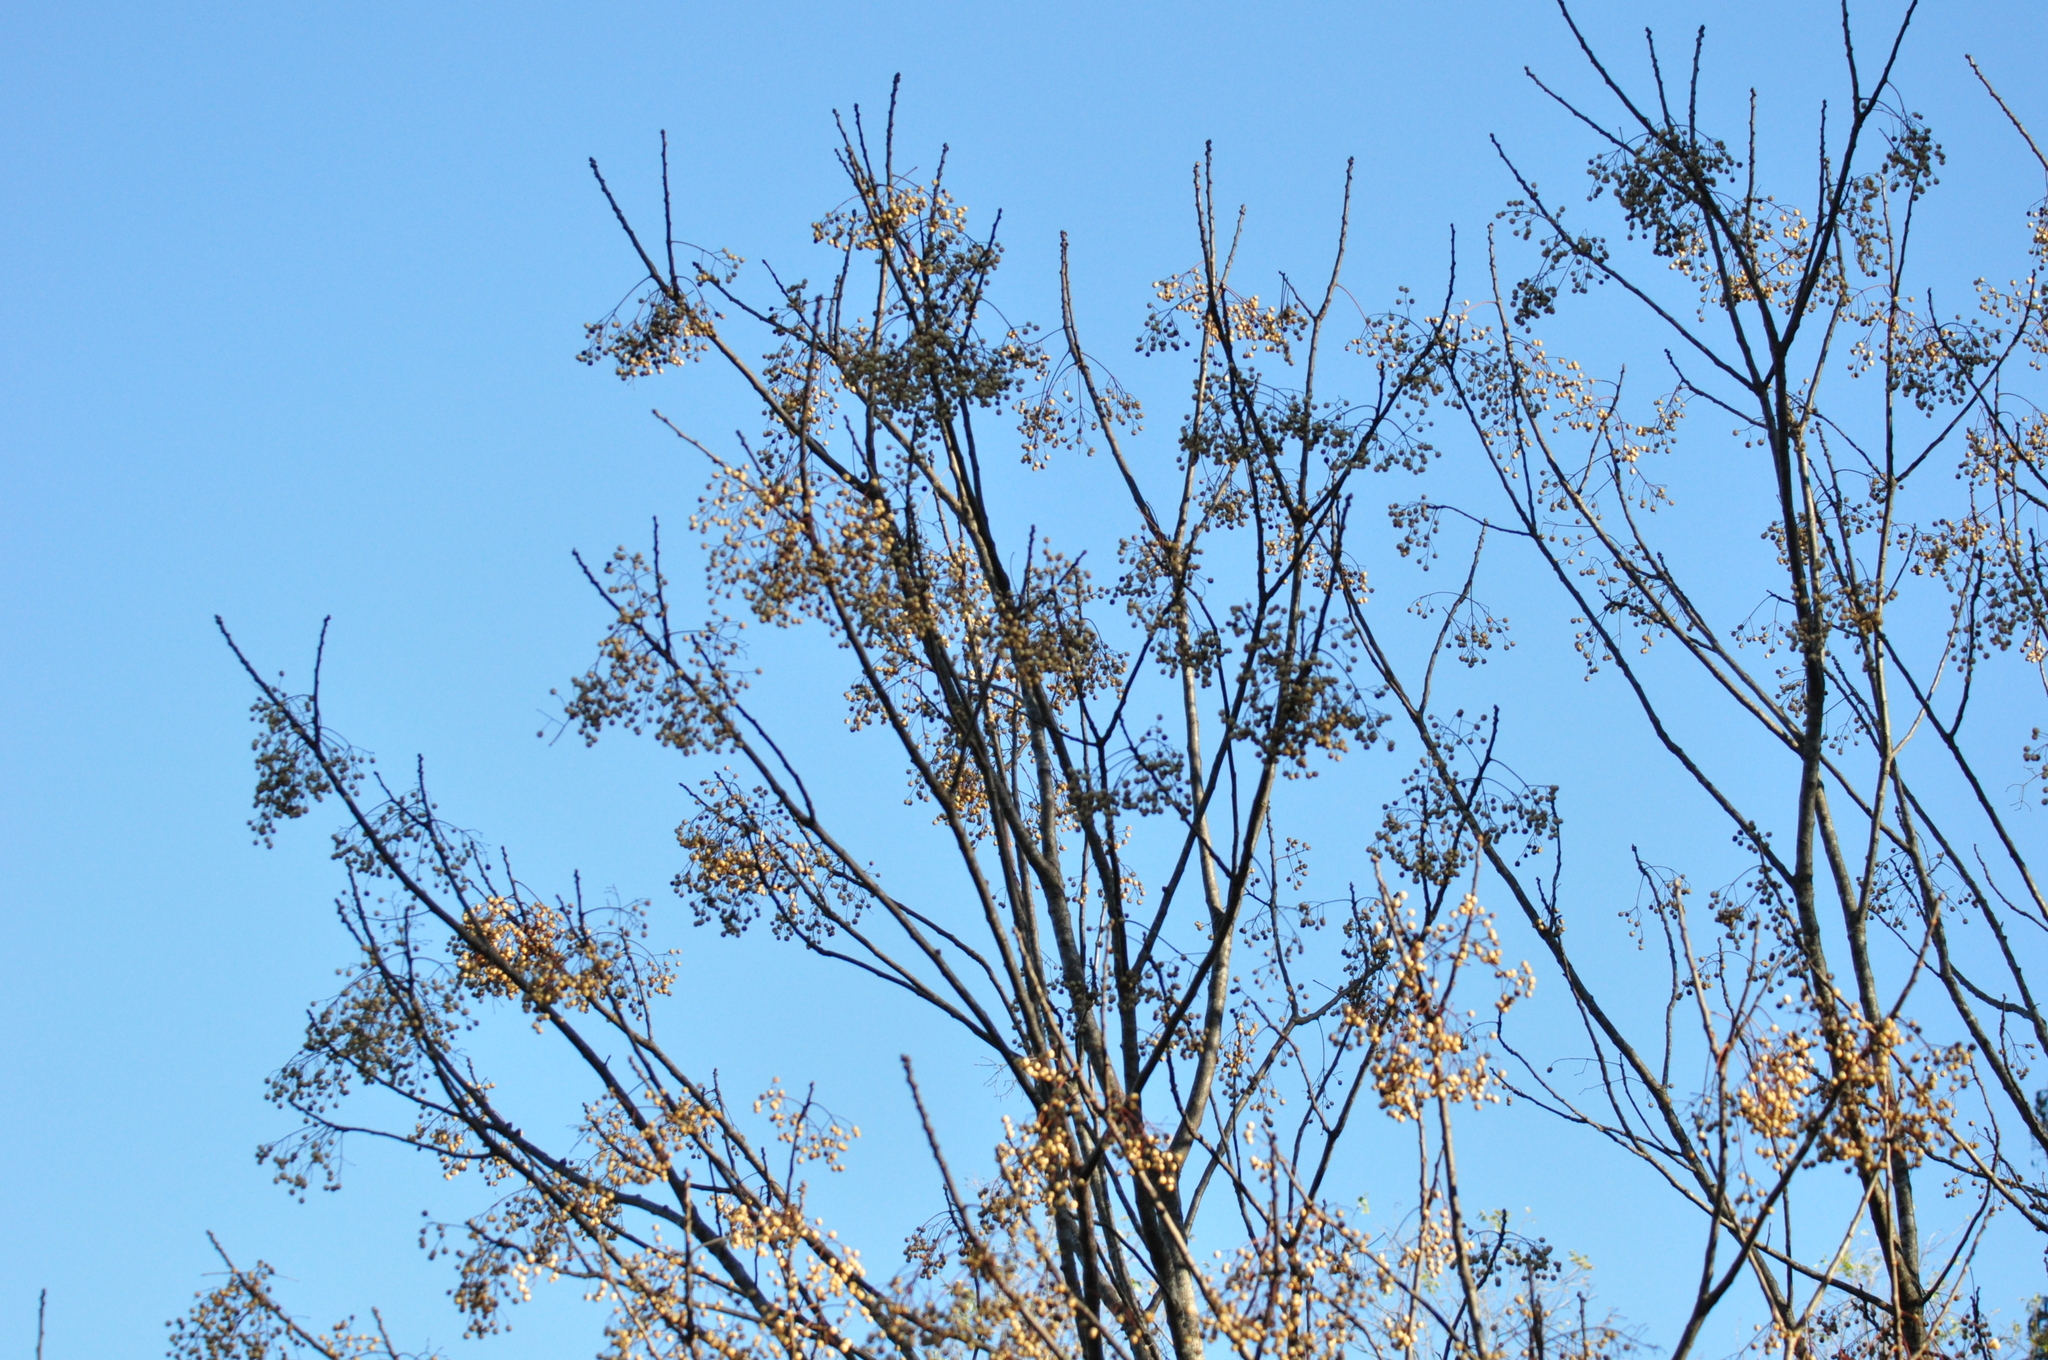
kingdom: Plantae
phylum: Tracheophyta
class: Magnoliopsida
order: Sapindales
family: Meliaceae
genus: Melia
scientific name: Melia azedarach
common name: Chinaberrytree
